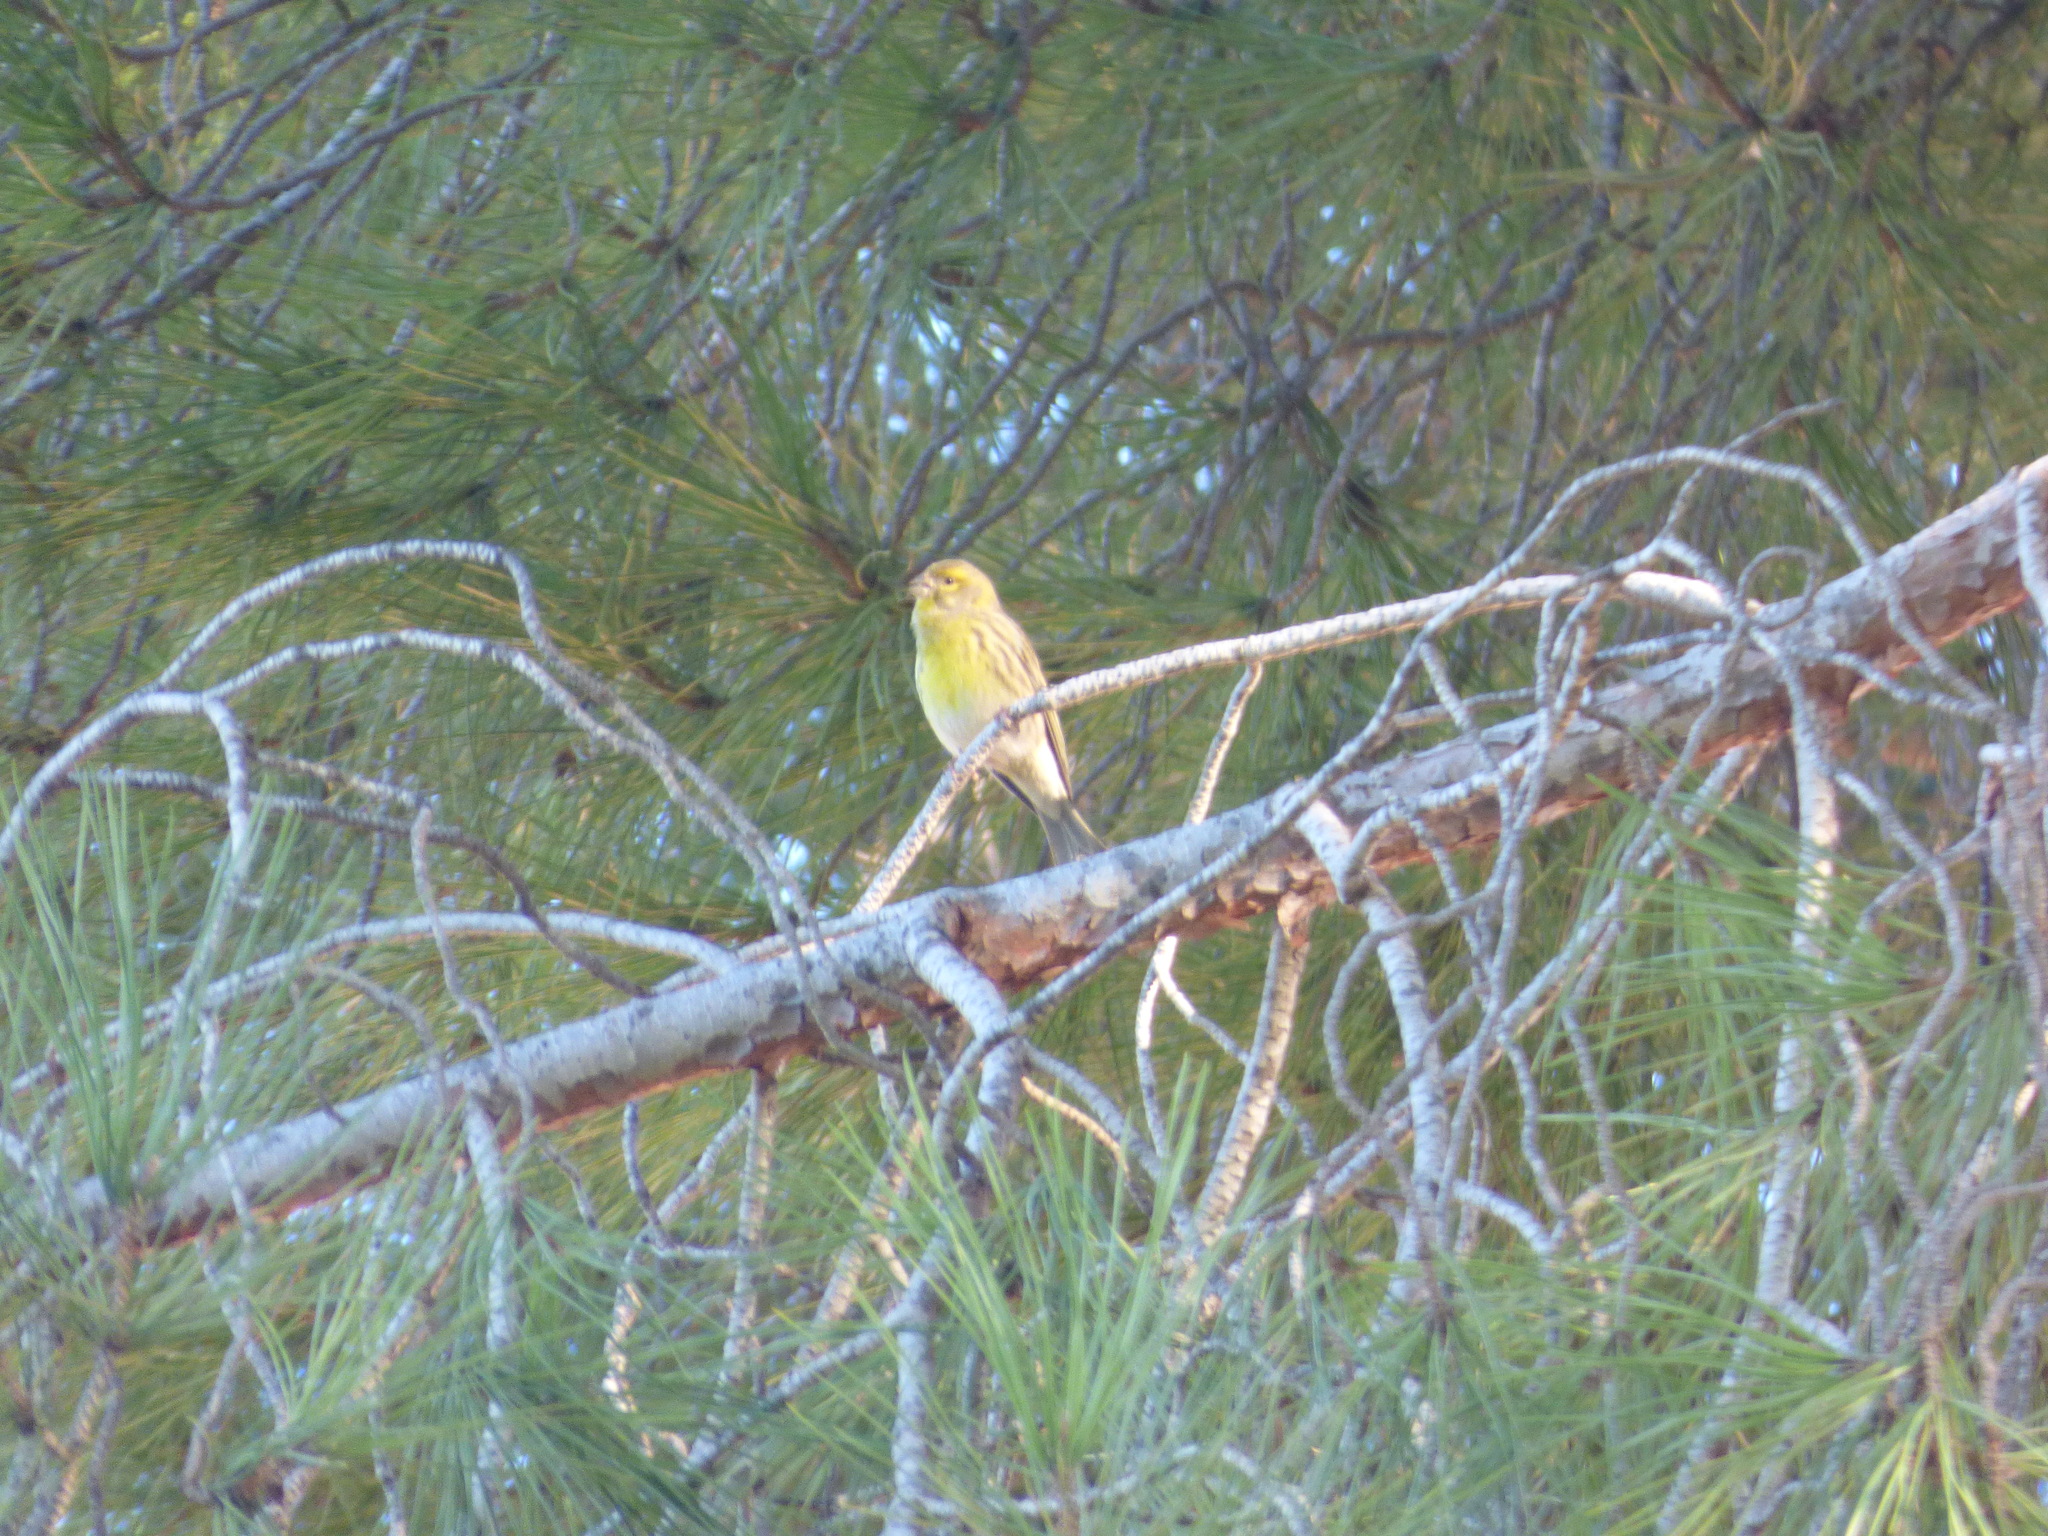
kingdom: Animalia
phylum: Chordata
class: Aves
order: Passeriformes
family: Fringillidae
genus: Serinus
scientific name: Serinus serinus
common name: European serin
